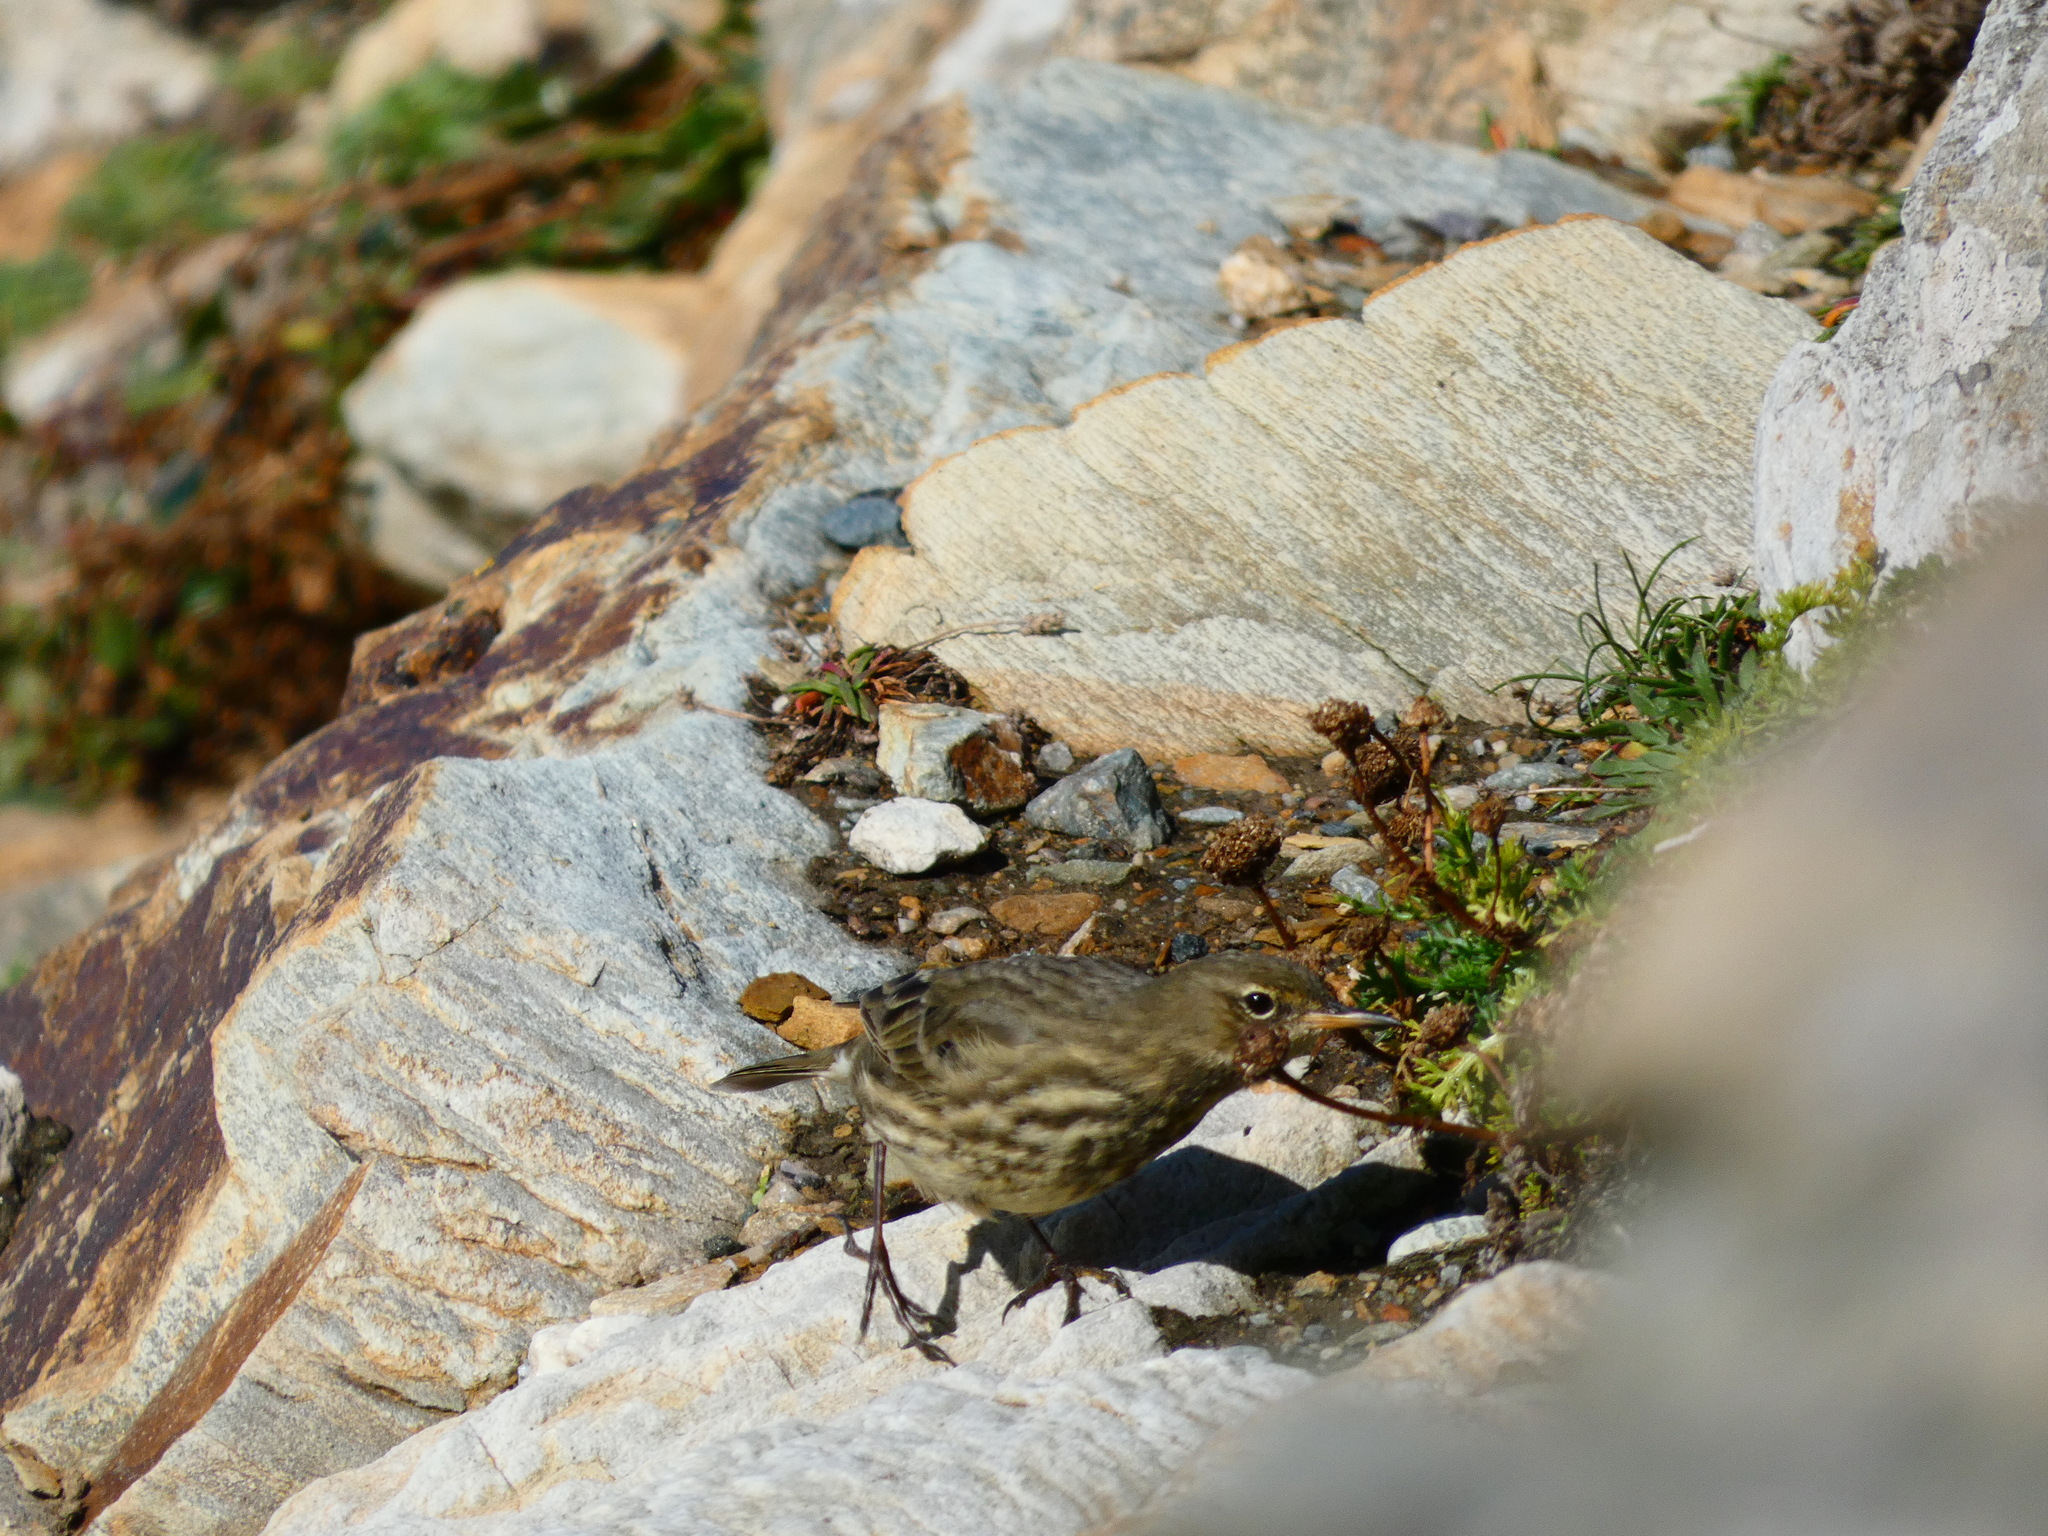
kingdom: Animalia
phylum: Chordata
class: Aves
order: Passeriformes
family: Motacillidae
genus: Anthus
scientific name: Anthus petrosus
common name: Eurasian rock pipit
